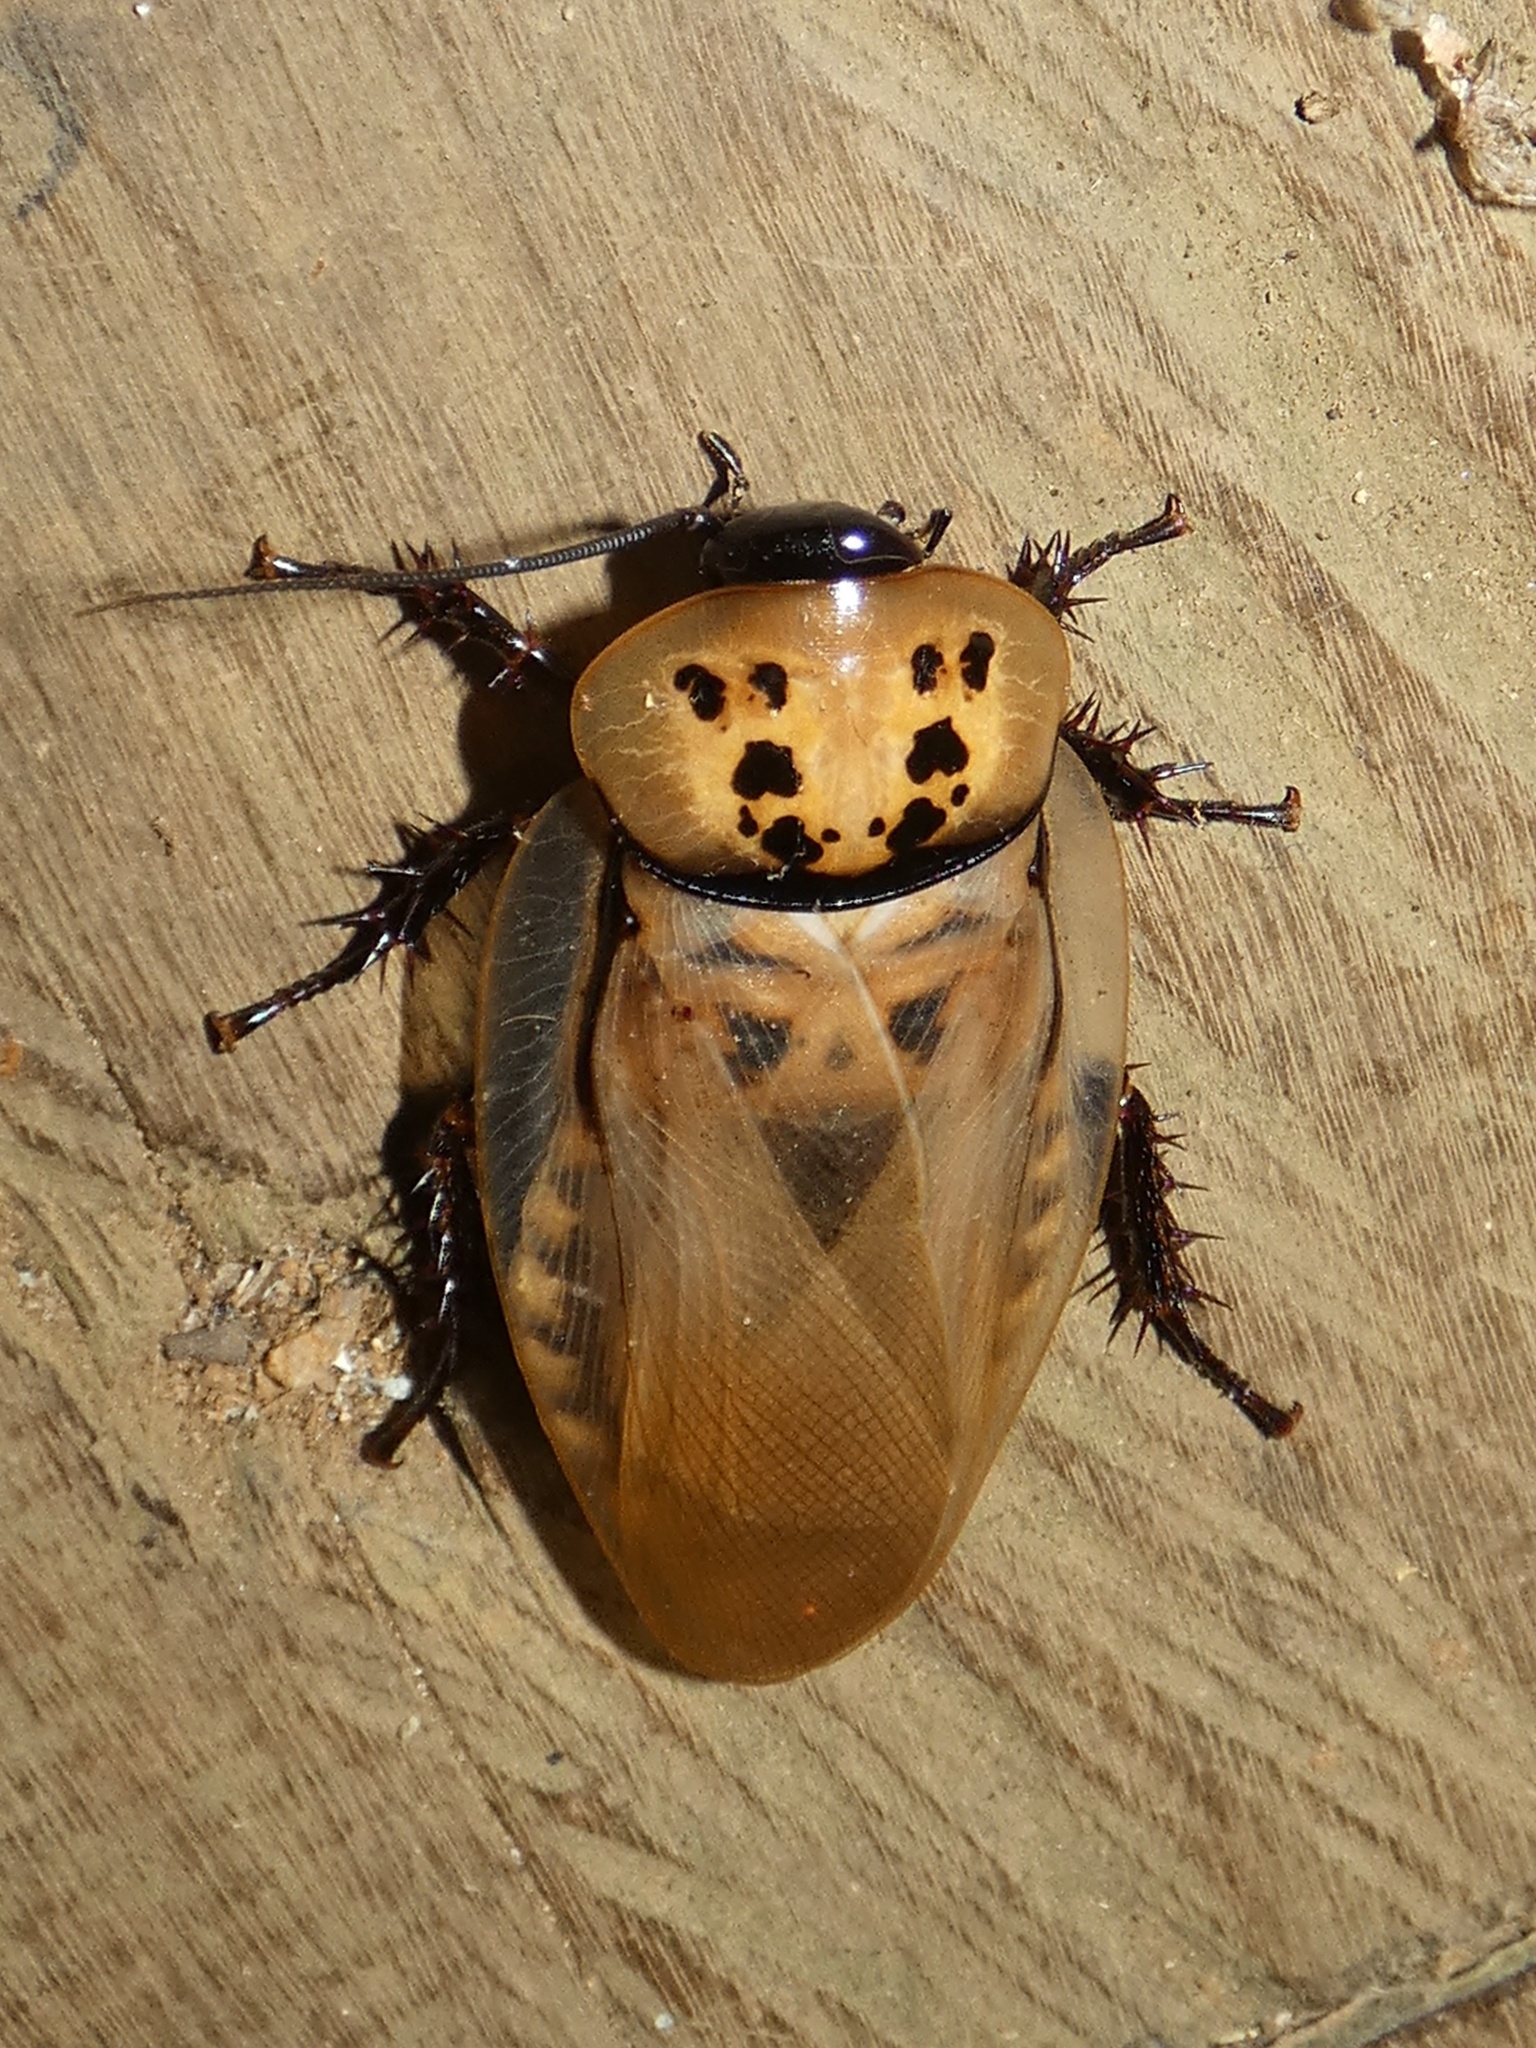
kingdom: Animalia
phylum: Arthropoda
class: Insecta
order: Blattodea
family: Blaberidae
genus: Eublaberus
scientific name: Eublaberus distanti
